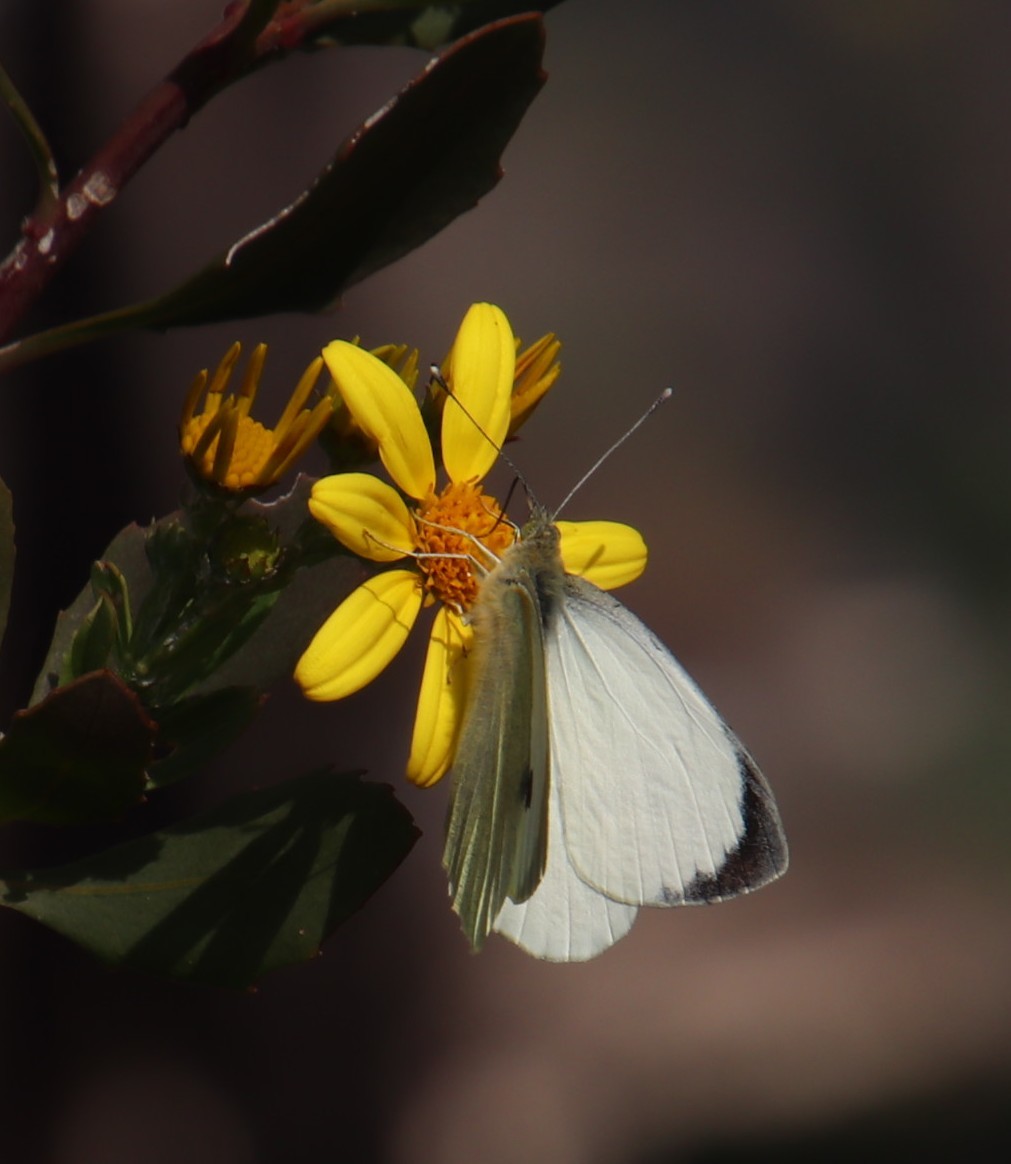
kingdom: Animalia
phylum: Arthropoda
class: Insecta
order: Lepidoptera
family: Pieridae
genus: Pieris
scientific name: Pieris brassicae
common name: Large white
